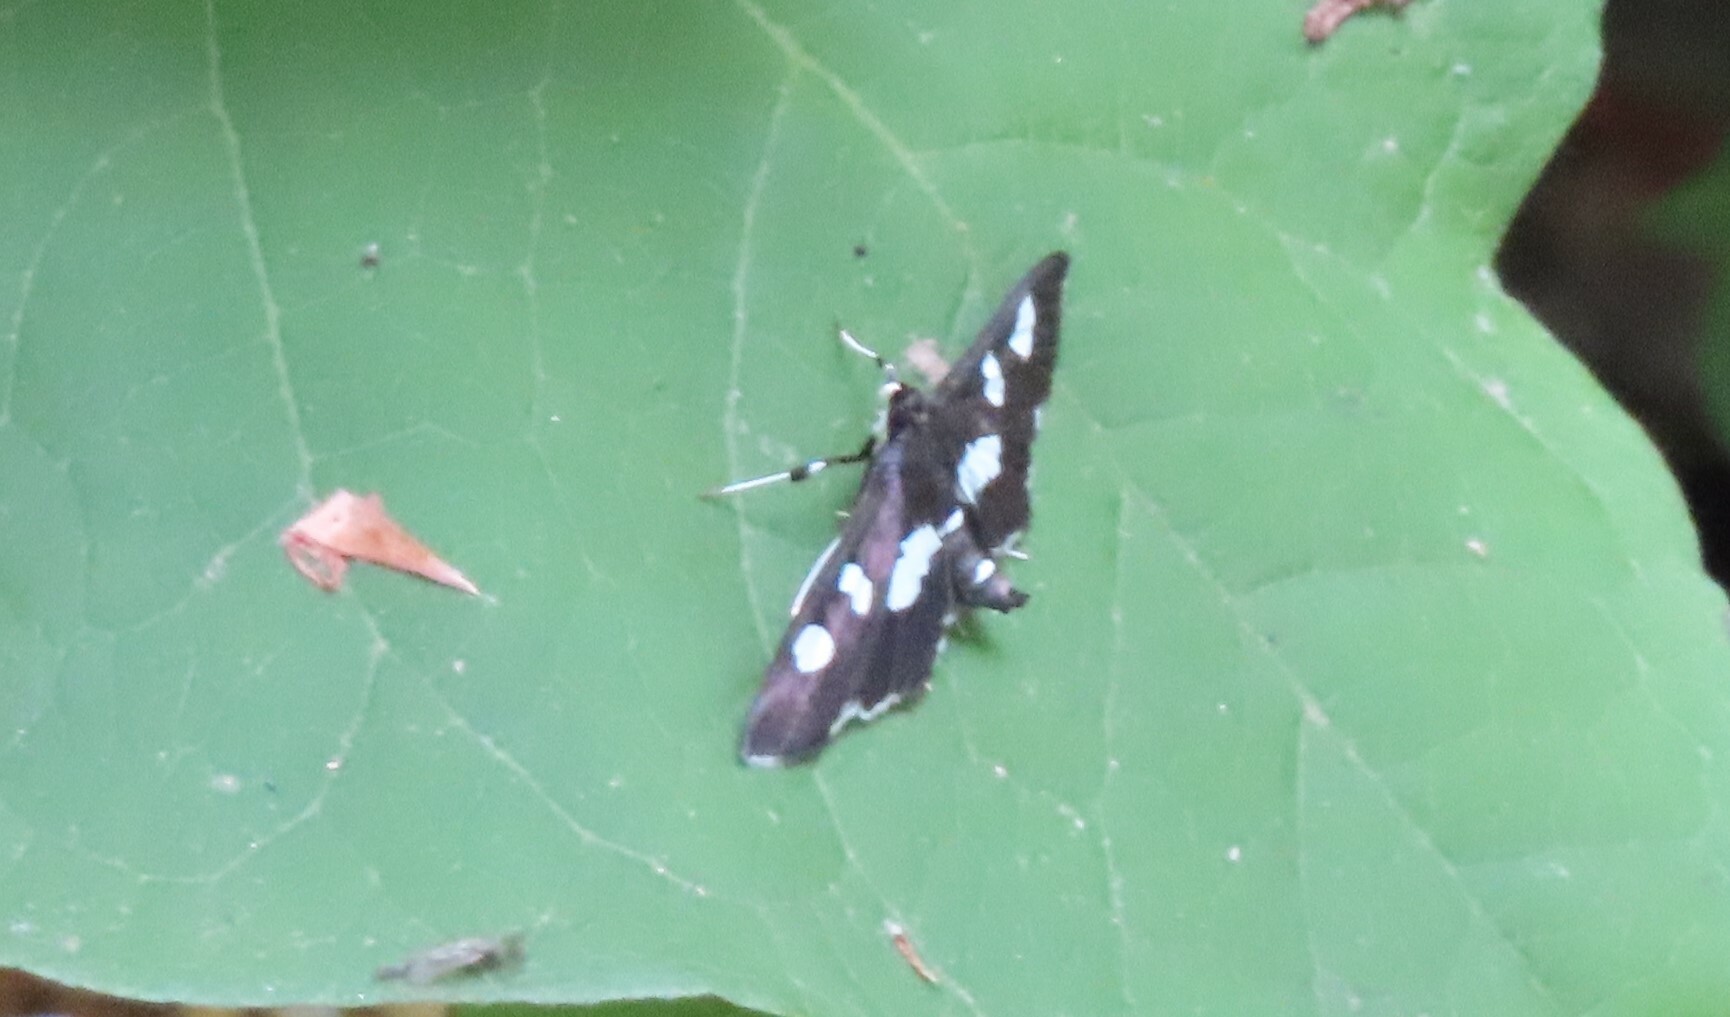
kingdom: Animalia
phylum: Arthropoda
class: Insecta
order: Lepidoptera
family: Crambidae
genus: Desmia
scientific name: Desmia
